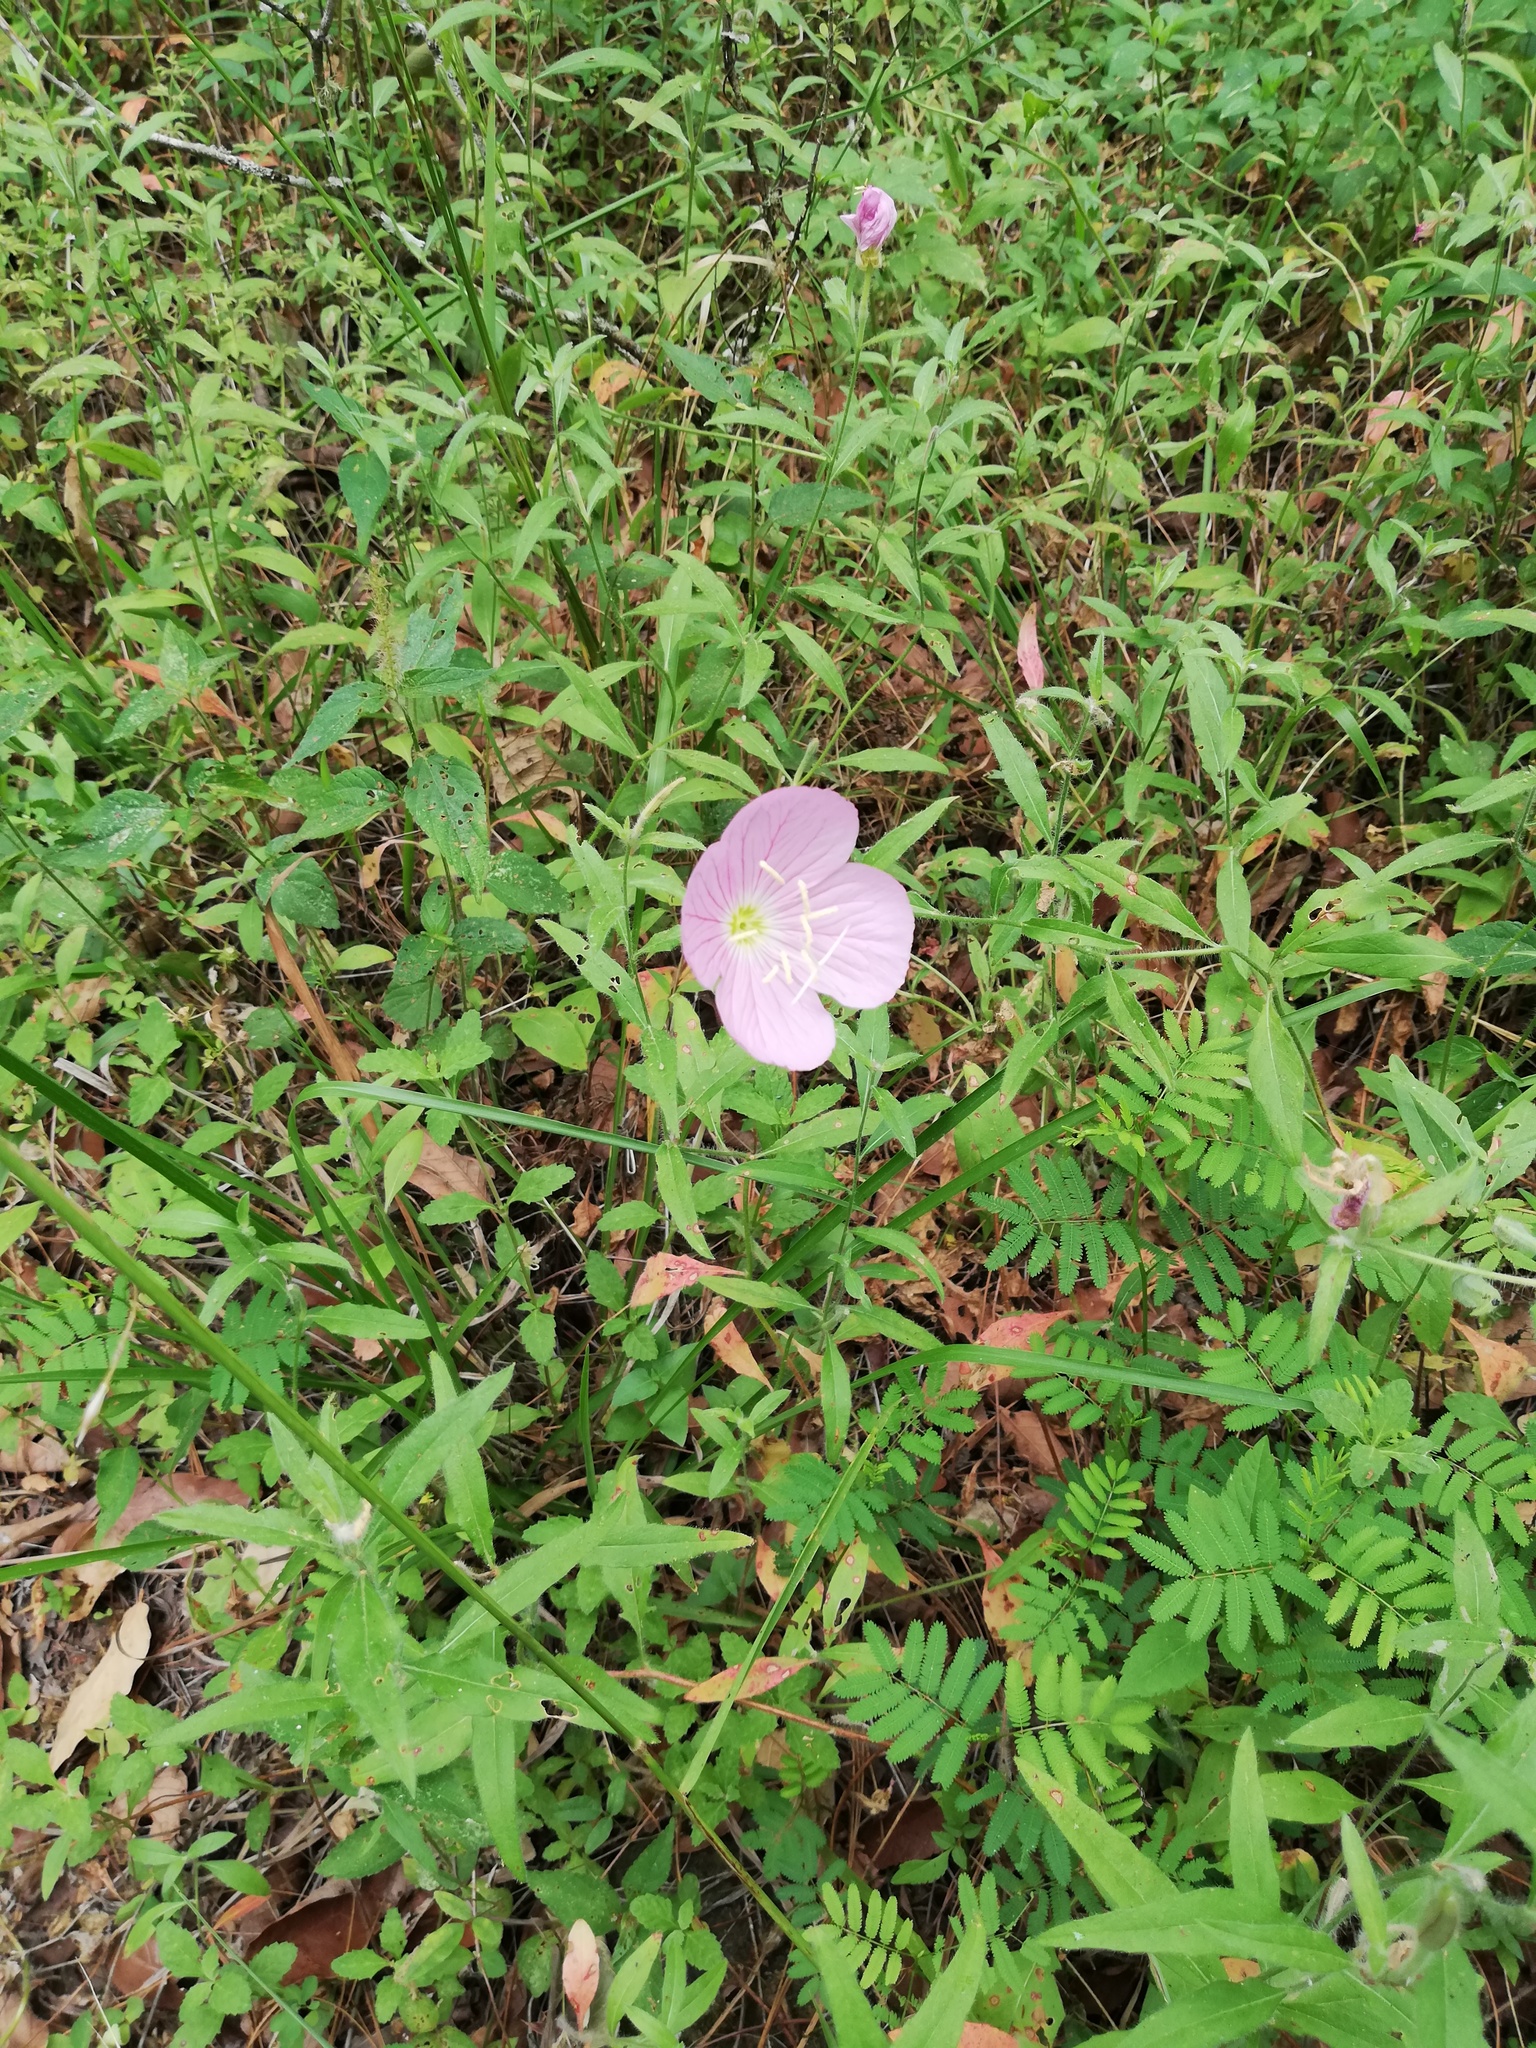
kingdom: Plantae
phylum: Tracheophyta
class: Magnoliopsida
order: Myrtales
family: Onagraceae
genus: Oenothera
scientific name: Oenothera speciosa
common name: White evening-primrose
